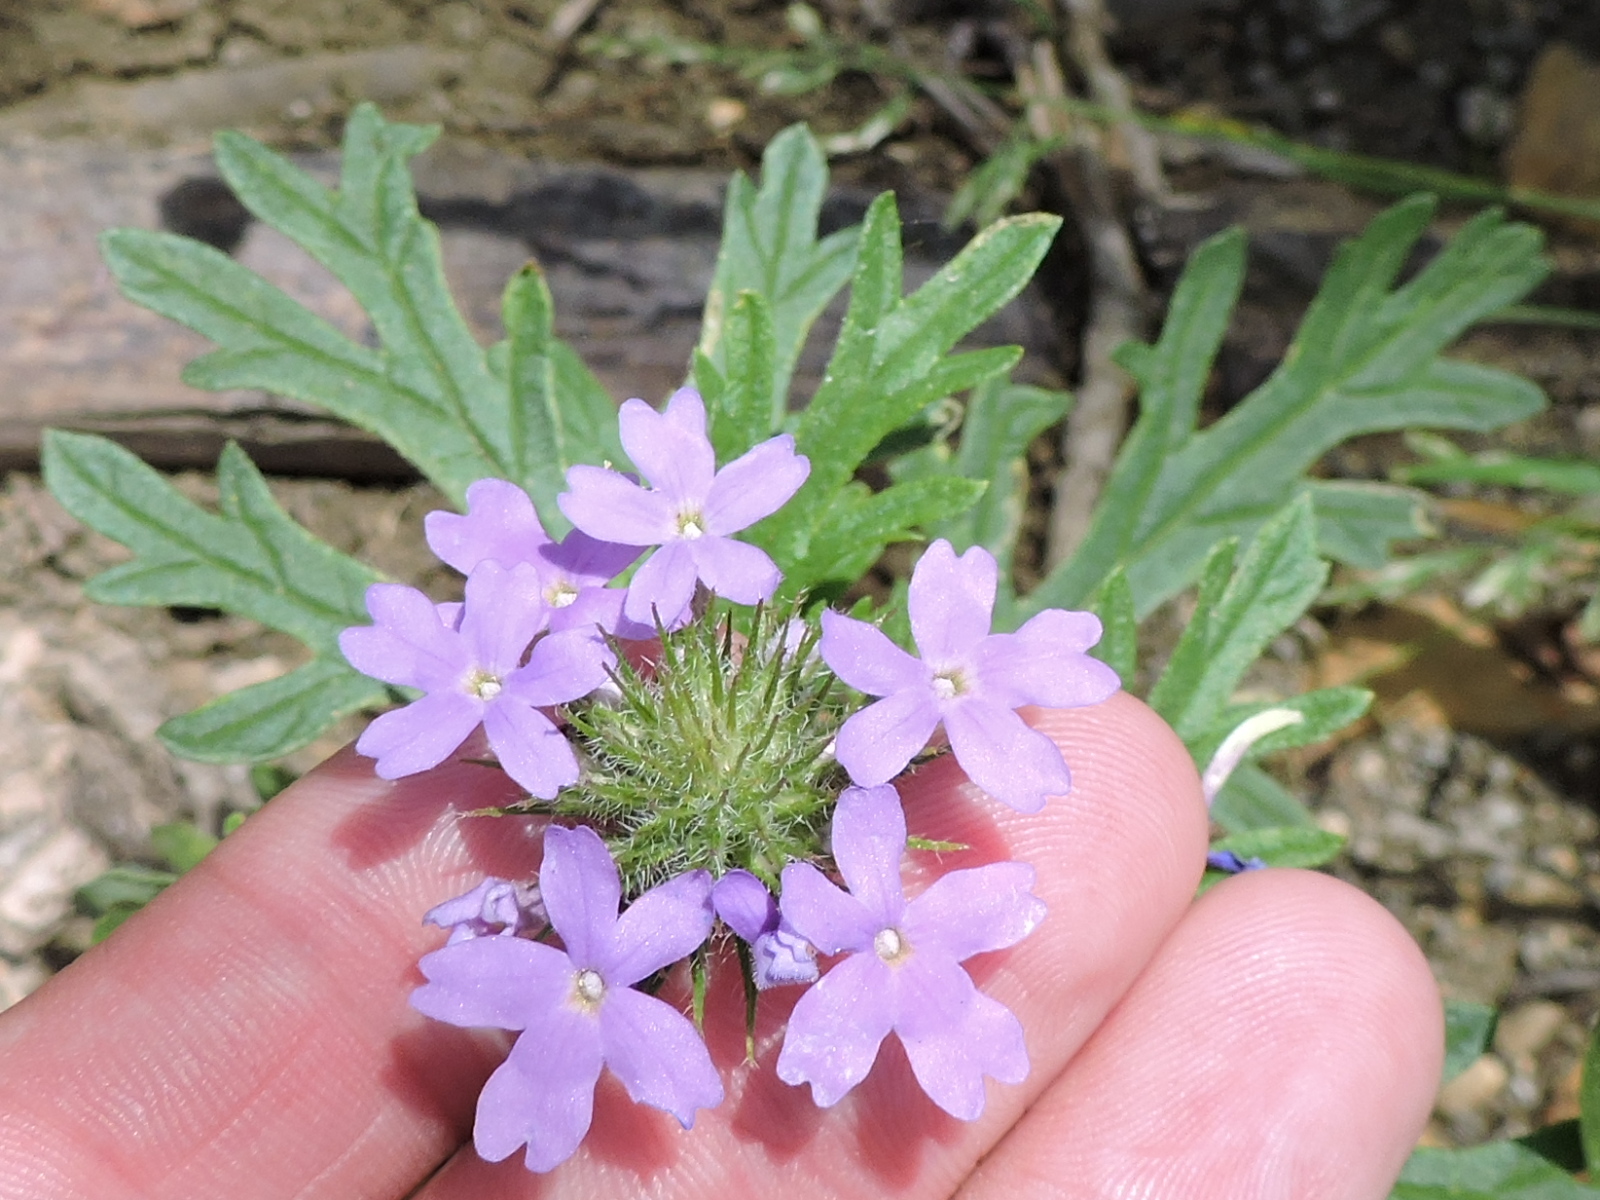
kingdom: Plantae
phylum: Tracheophyta
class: Magnoliopsida
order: Lamiales
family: Verbenaceae
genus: Verbena
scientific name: Verbena bipinnatifida
